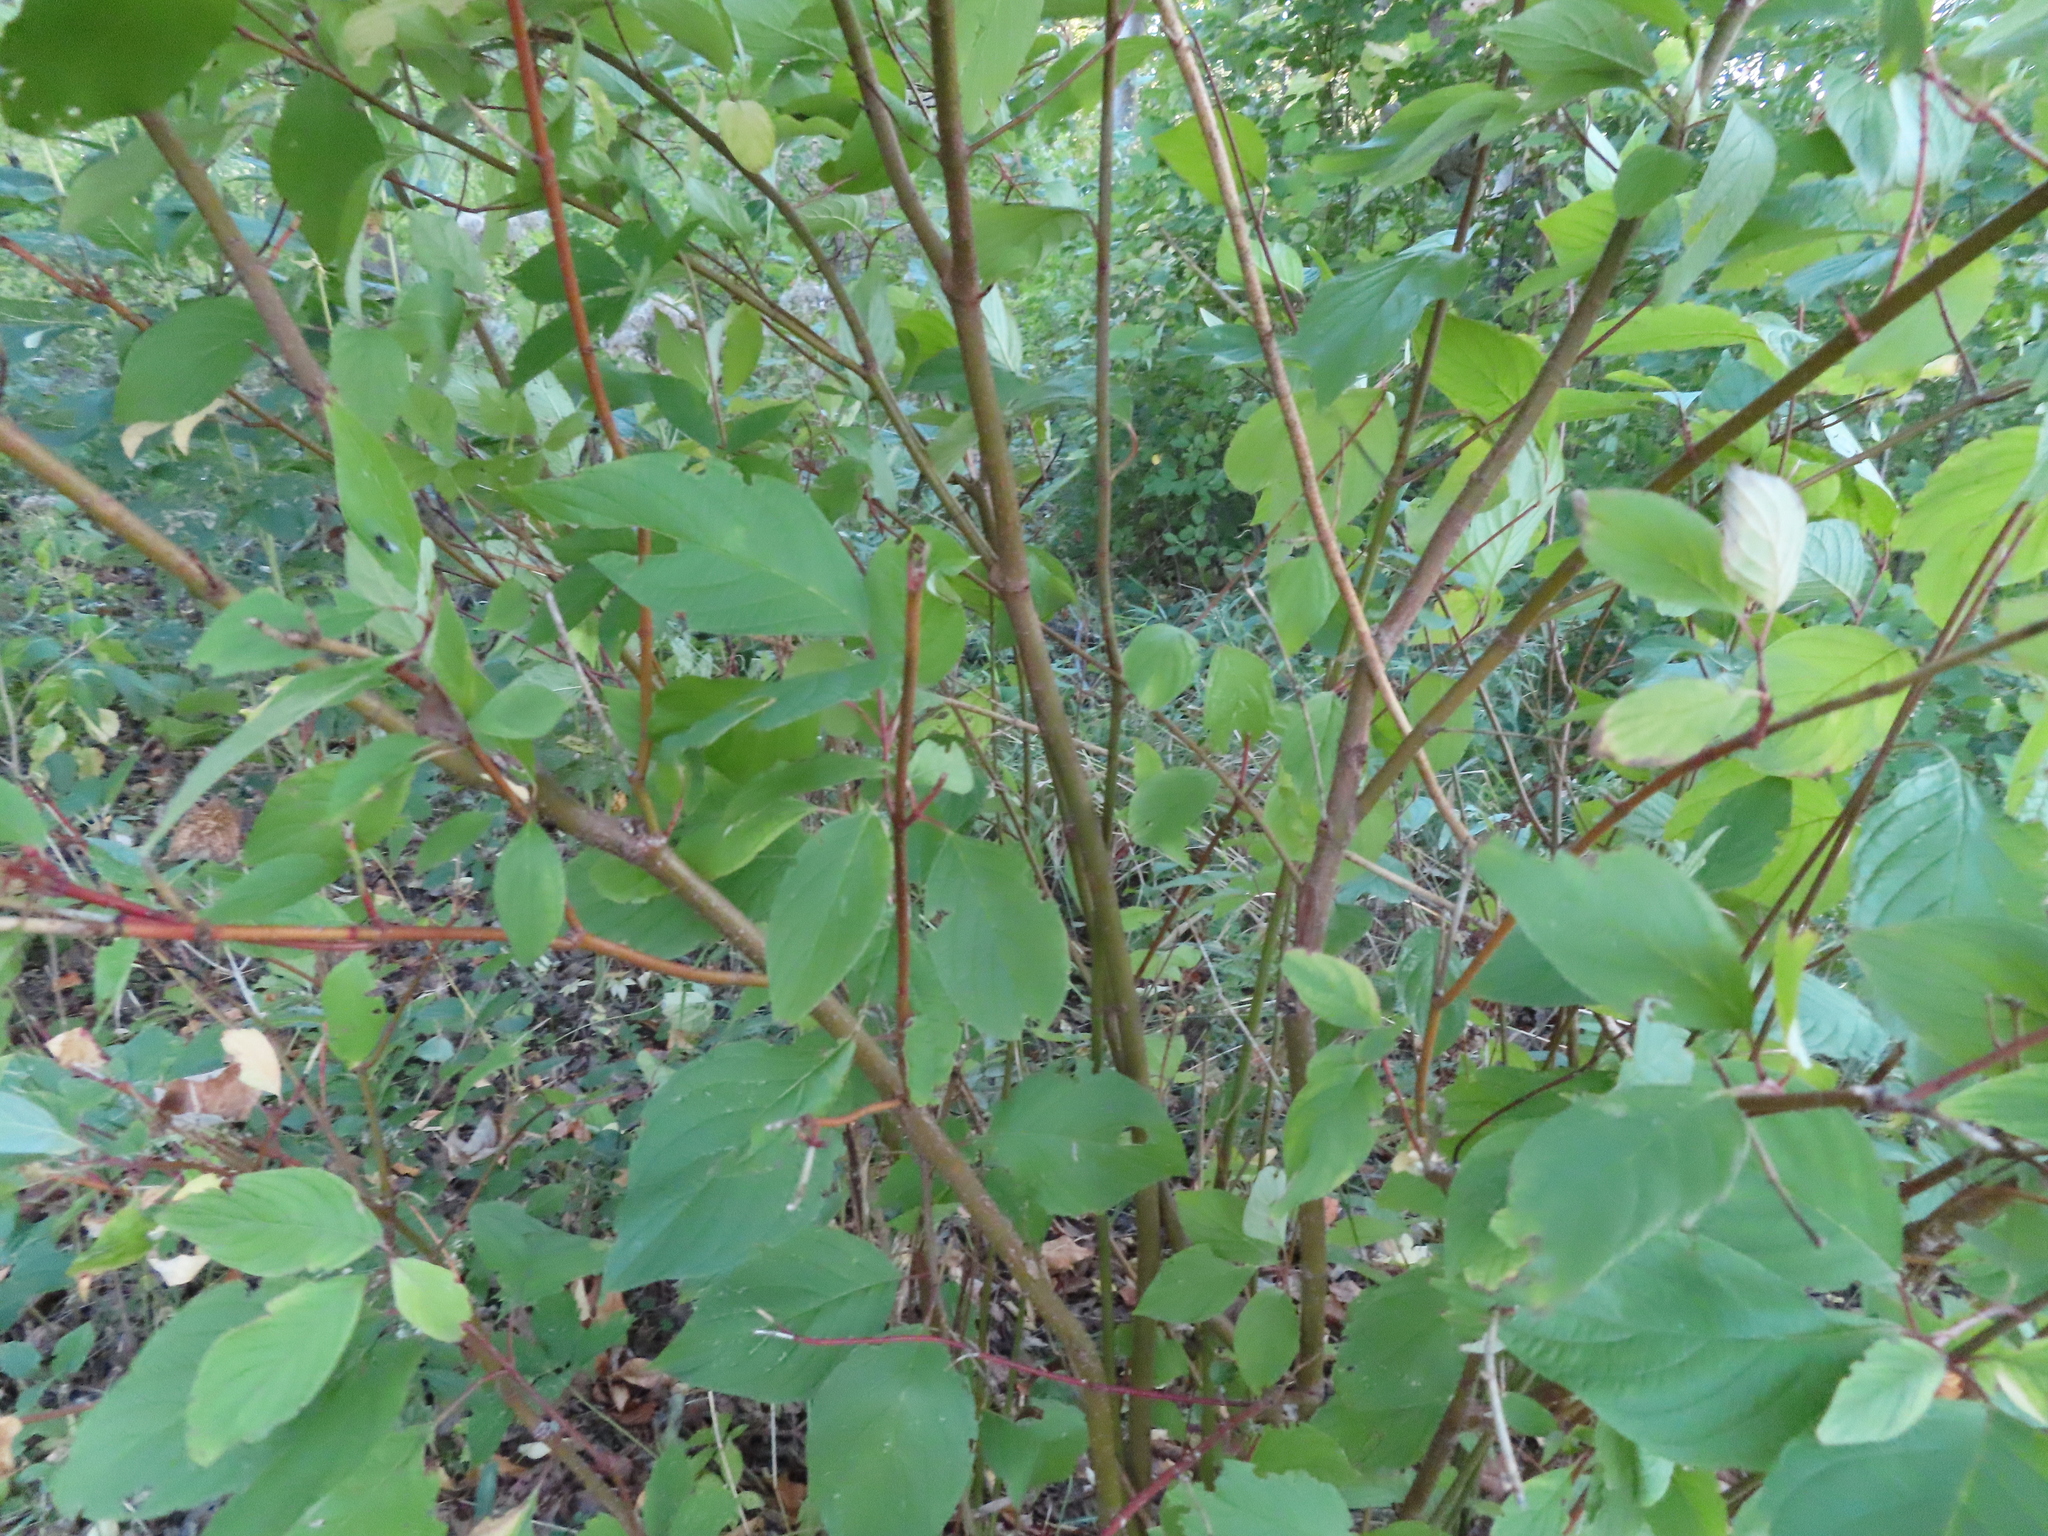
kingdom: Plantae
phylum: Tracheophyta
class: Magnoliopsida
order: Cornales
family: Cornaceae
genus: Cornus
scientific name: Cornus sericea
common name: Red-osier dogwood
